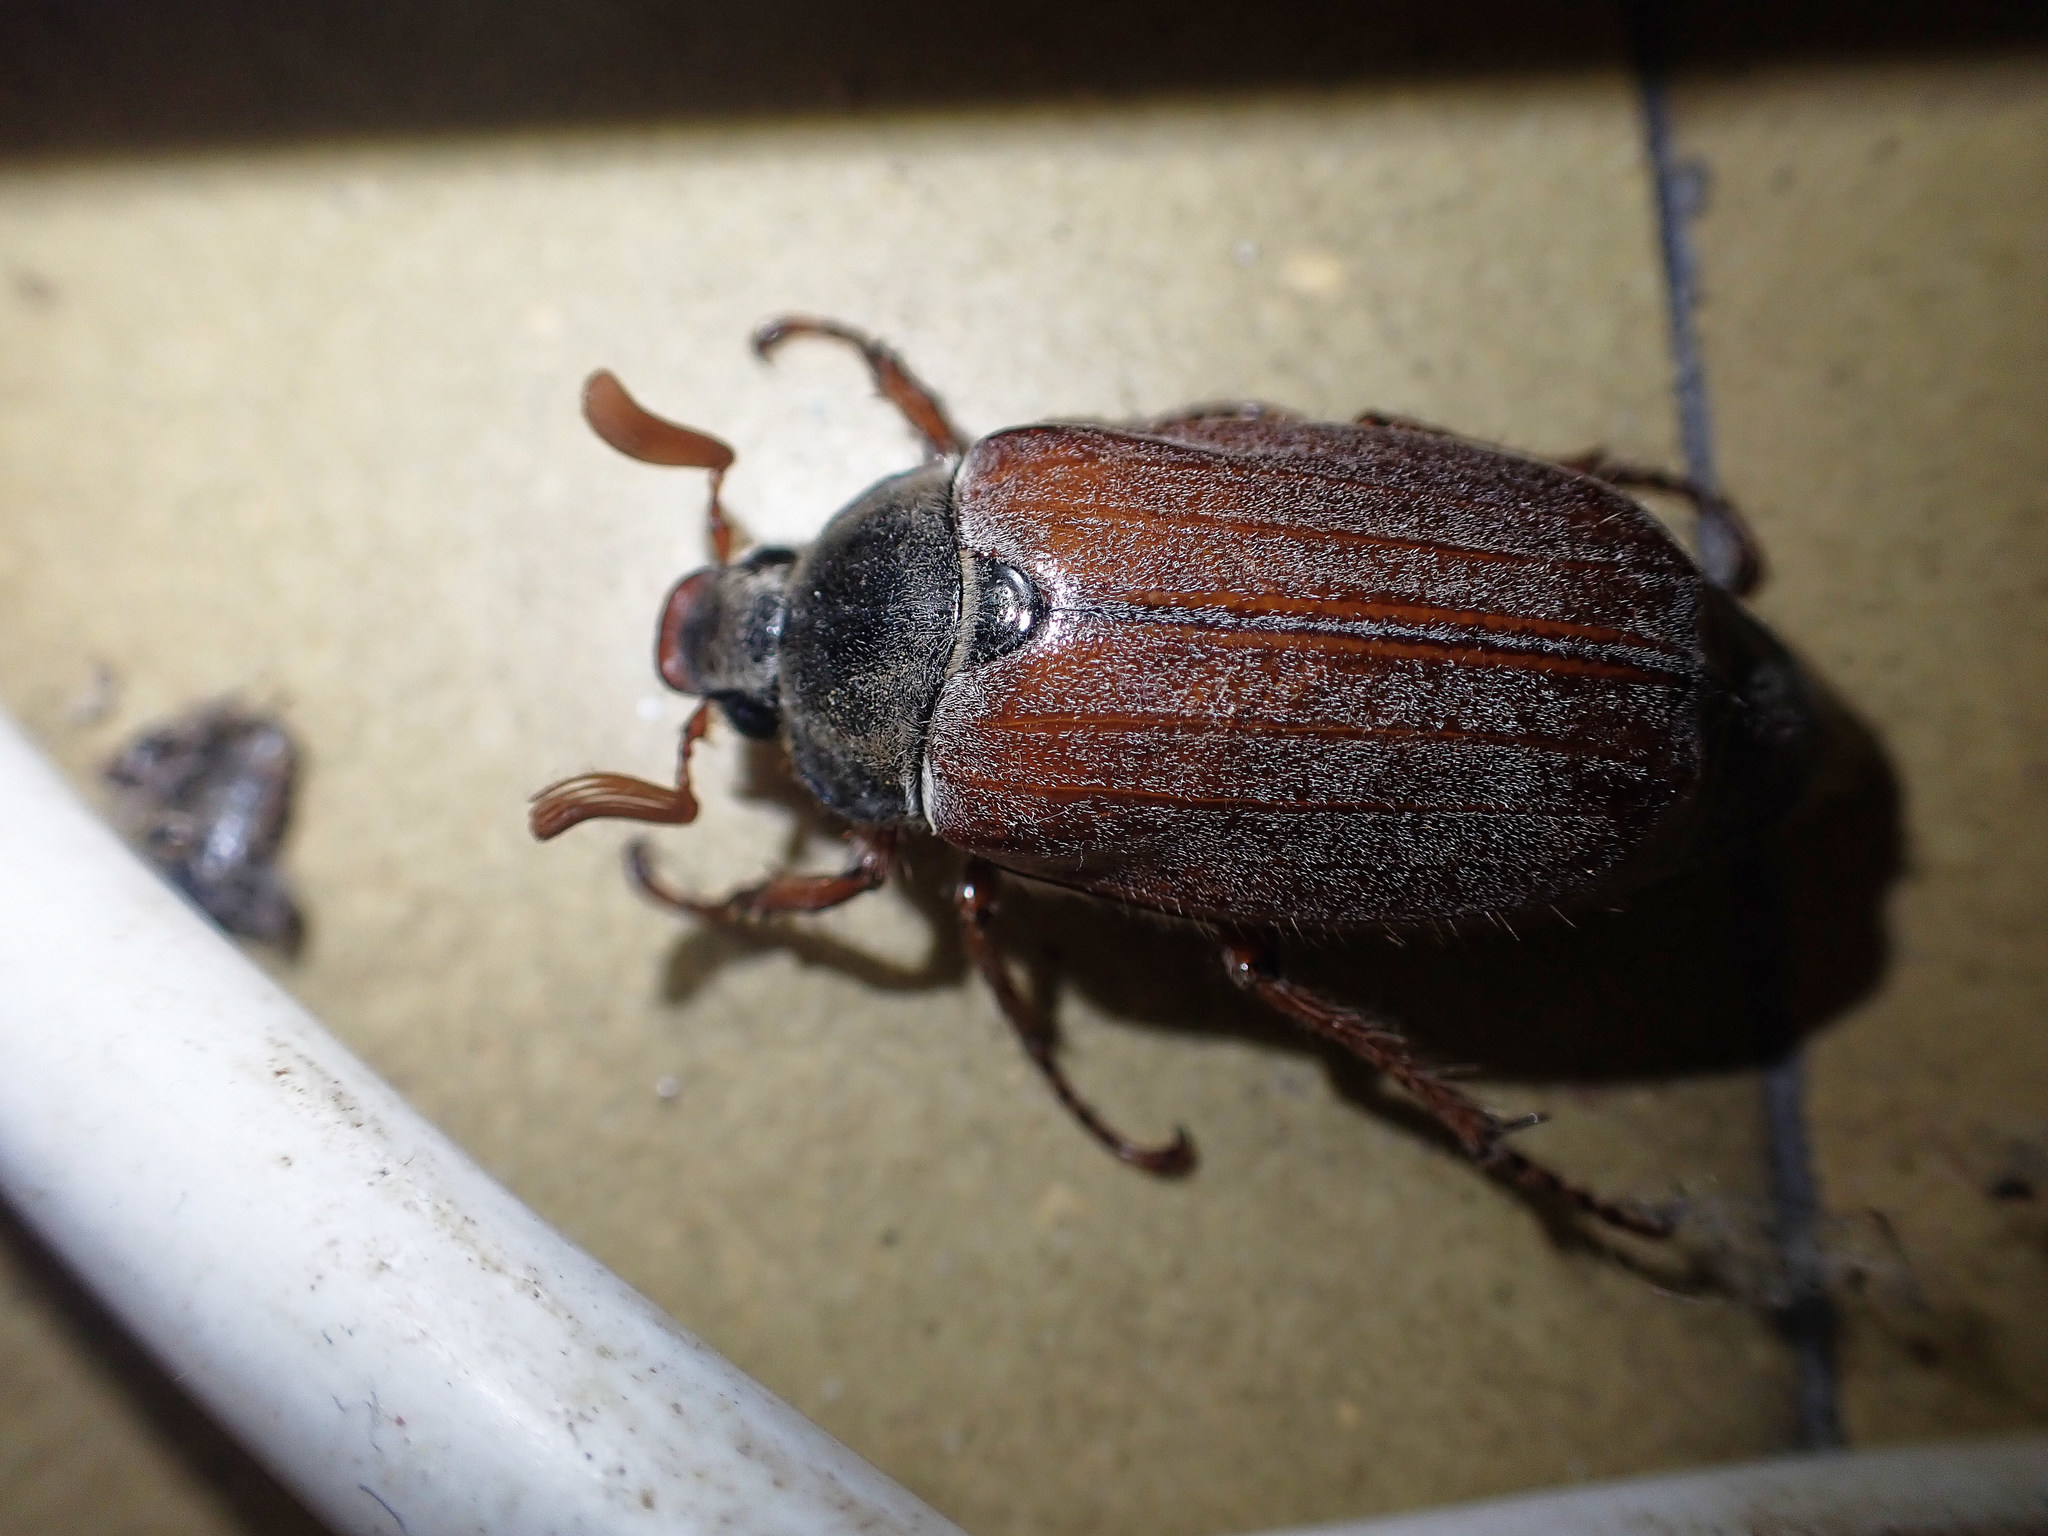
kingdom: Animalia
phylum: Arthropoda
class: Insecta
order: Coleoptera
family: Scarabaeidae
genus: Melolontha
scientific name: Melolontha melolontha
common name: Cockchafer maybeetle
